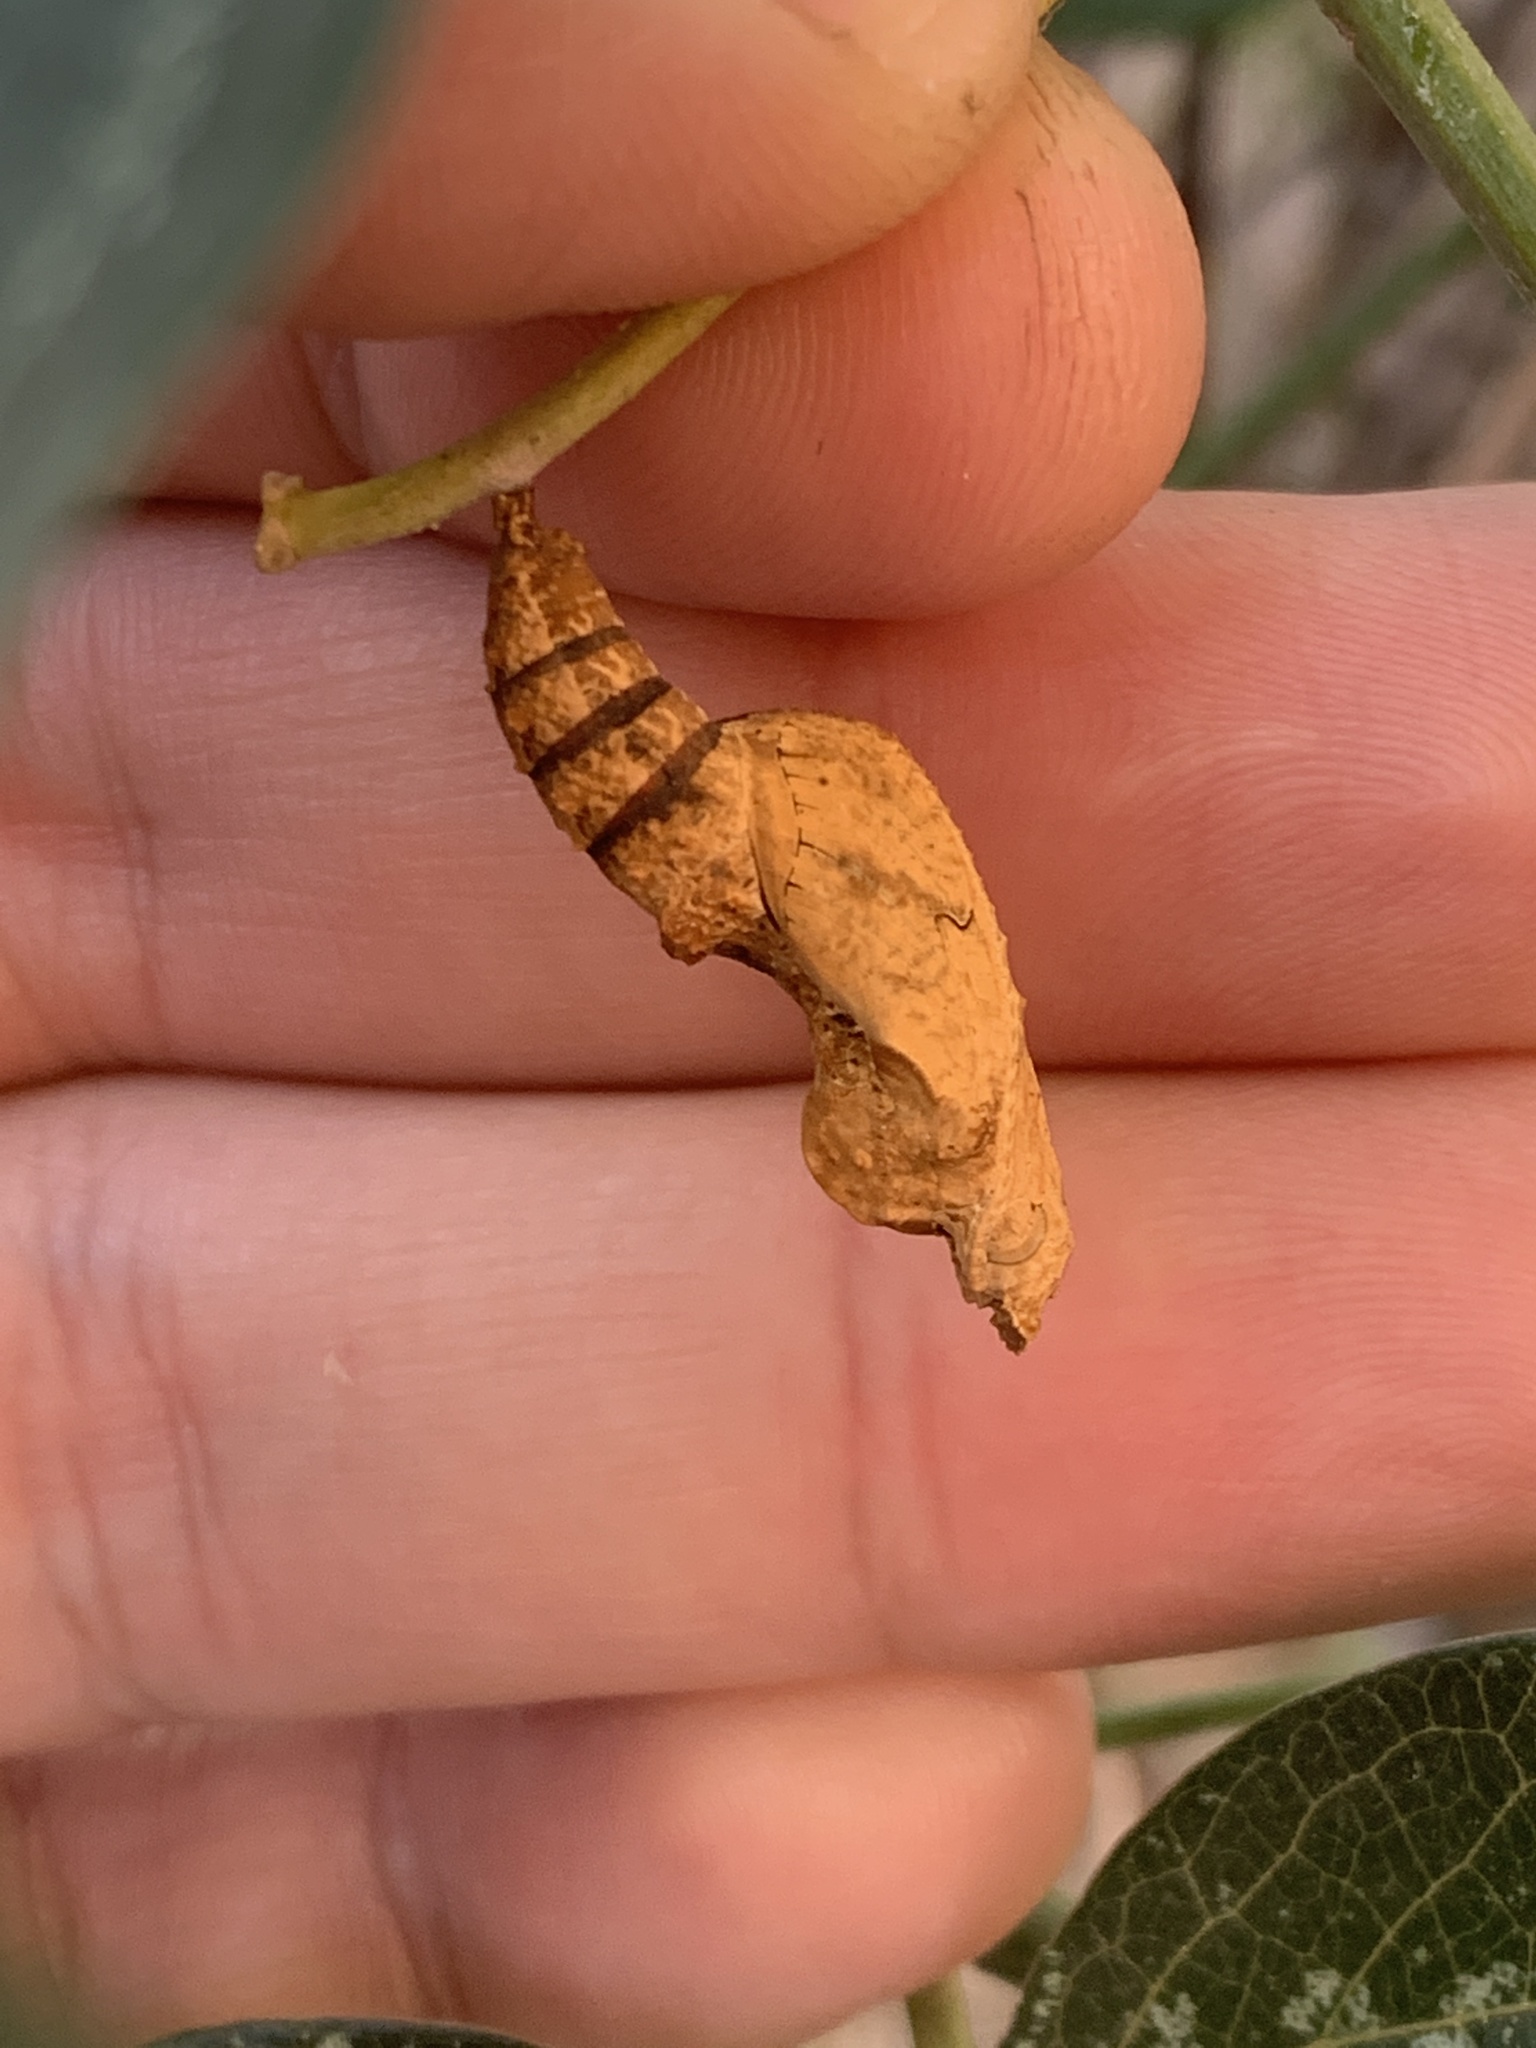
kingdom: Animalia
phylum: Arthropoda
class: Insecta
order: Lepidoptera
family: Nymphalidae
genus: Dione
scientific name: Dione vanillae
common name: Gulf fritillary
